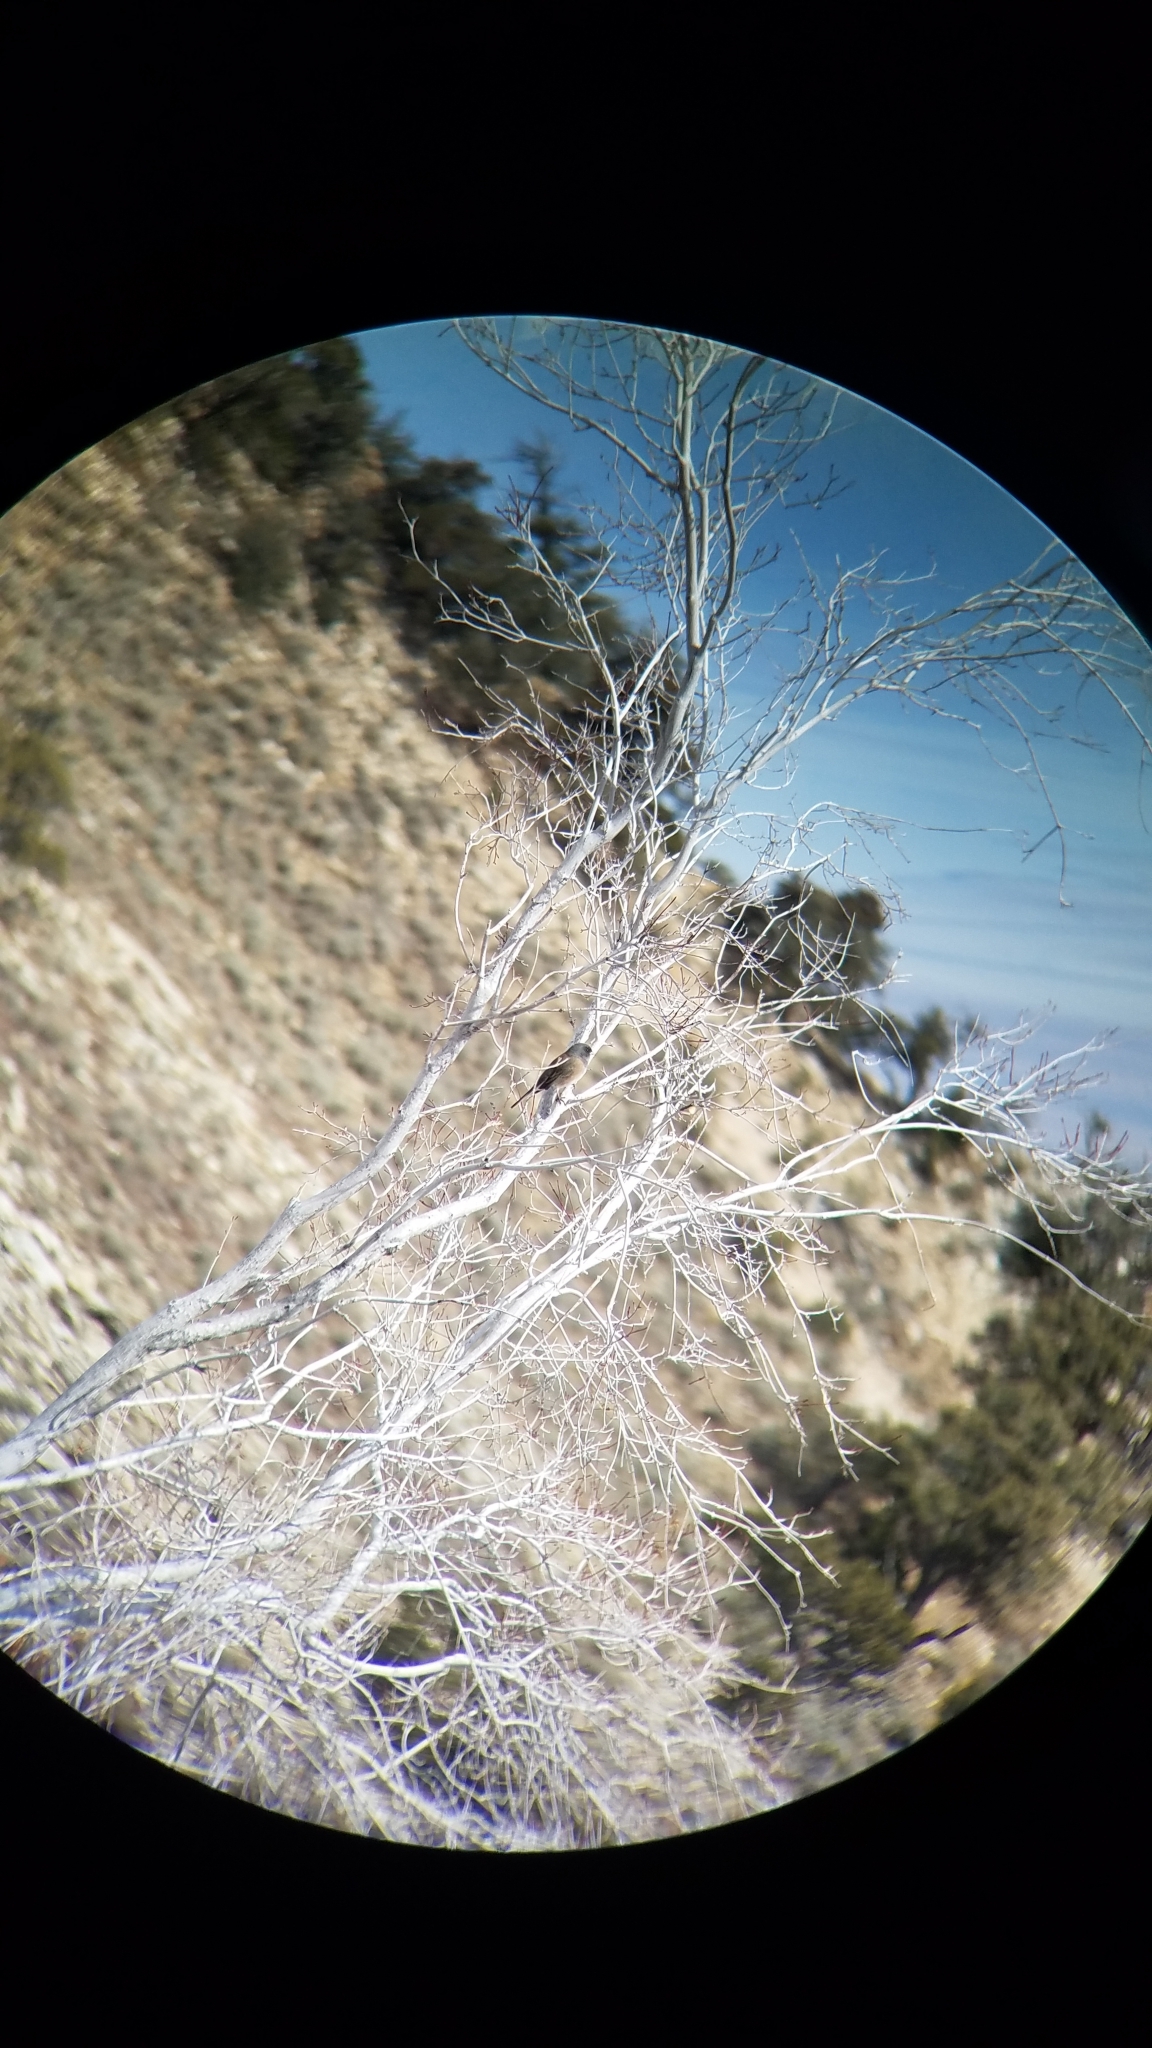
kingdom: Animalia
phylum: Chordata
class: Aves
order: Passeriformes
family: Passerellidae
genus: Junco
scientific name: Junco hyemalis
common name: Dark-eyed junco
